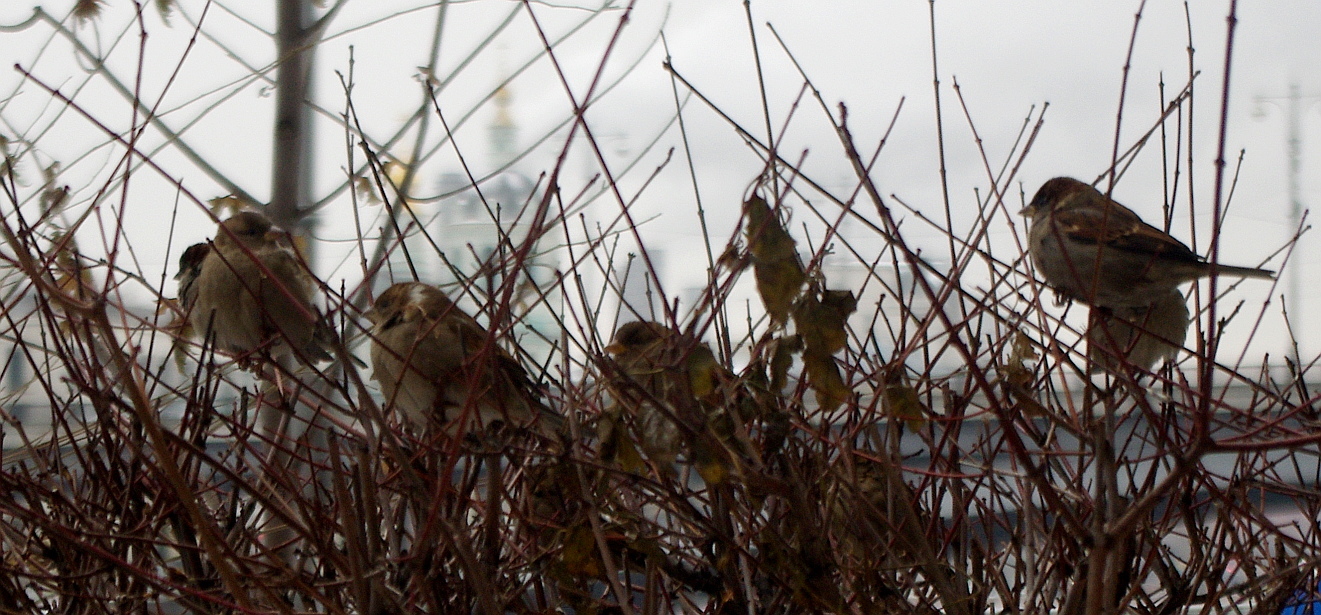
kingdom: Animalia
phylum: Chordata
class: Aves
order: Passeriformes
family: Passeridae
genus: Passer
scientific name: Passer domesticus
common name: House sparrow
